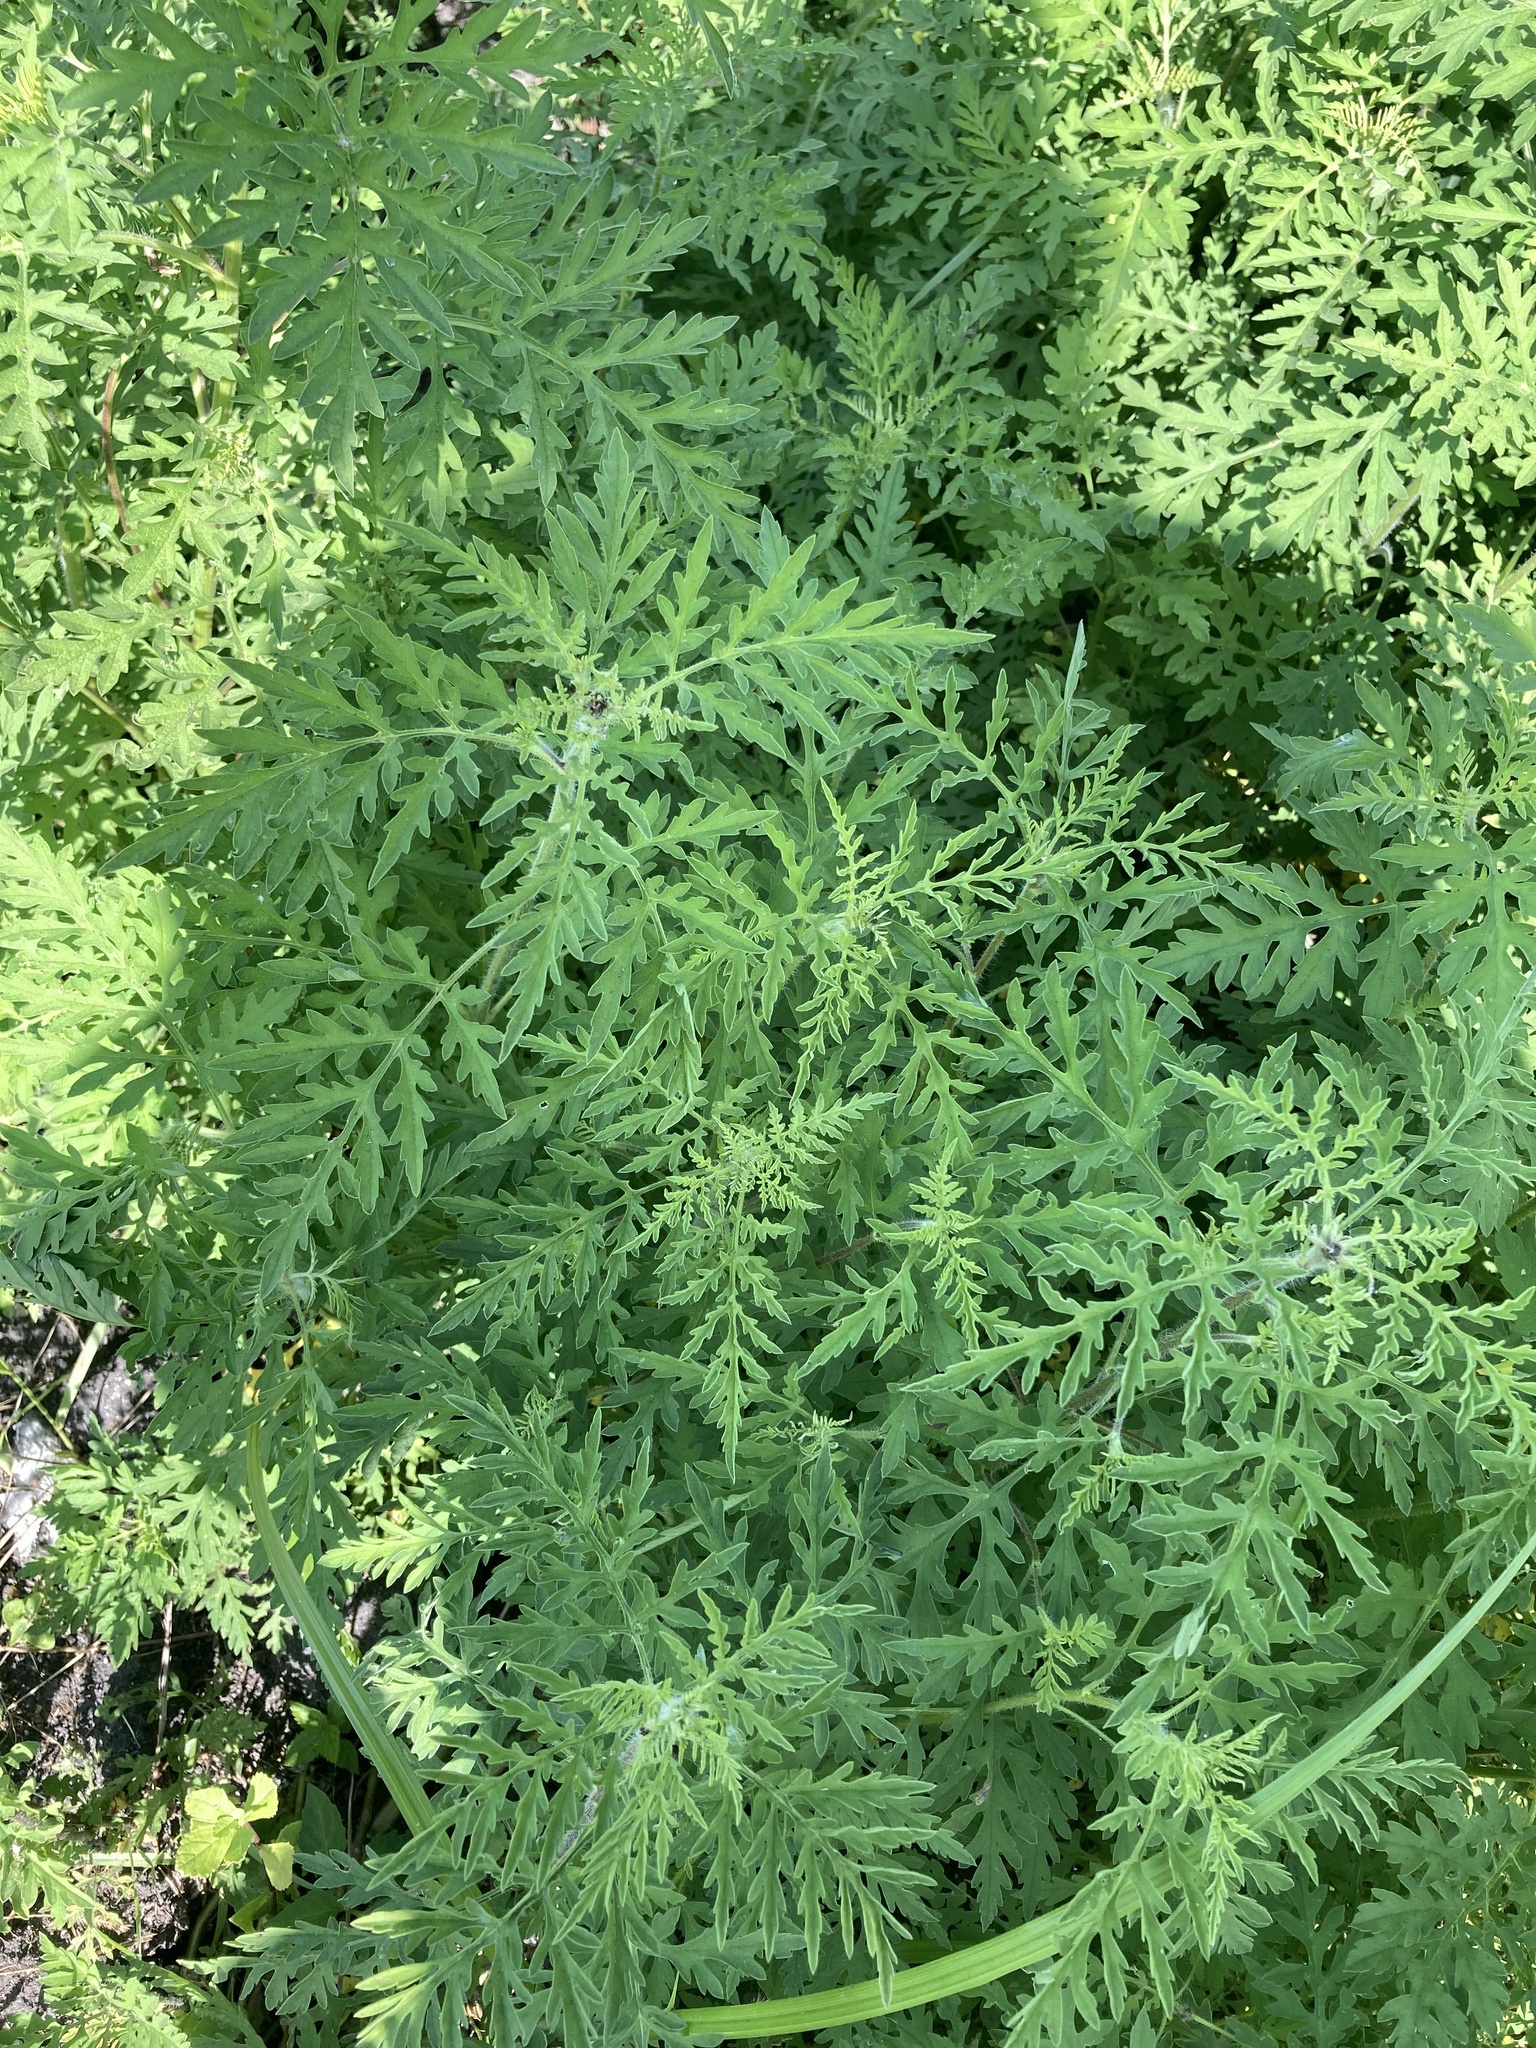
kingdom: Plantae
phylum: Tracheophyta
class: Magnoliopsida
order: Asterales
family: Asteraceae
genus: Ambrosia
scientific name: Ambrosia artemisiifolia
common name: Annual ragweed
